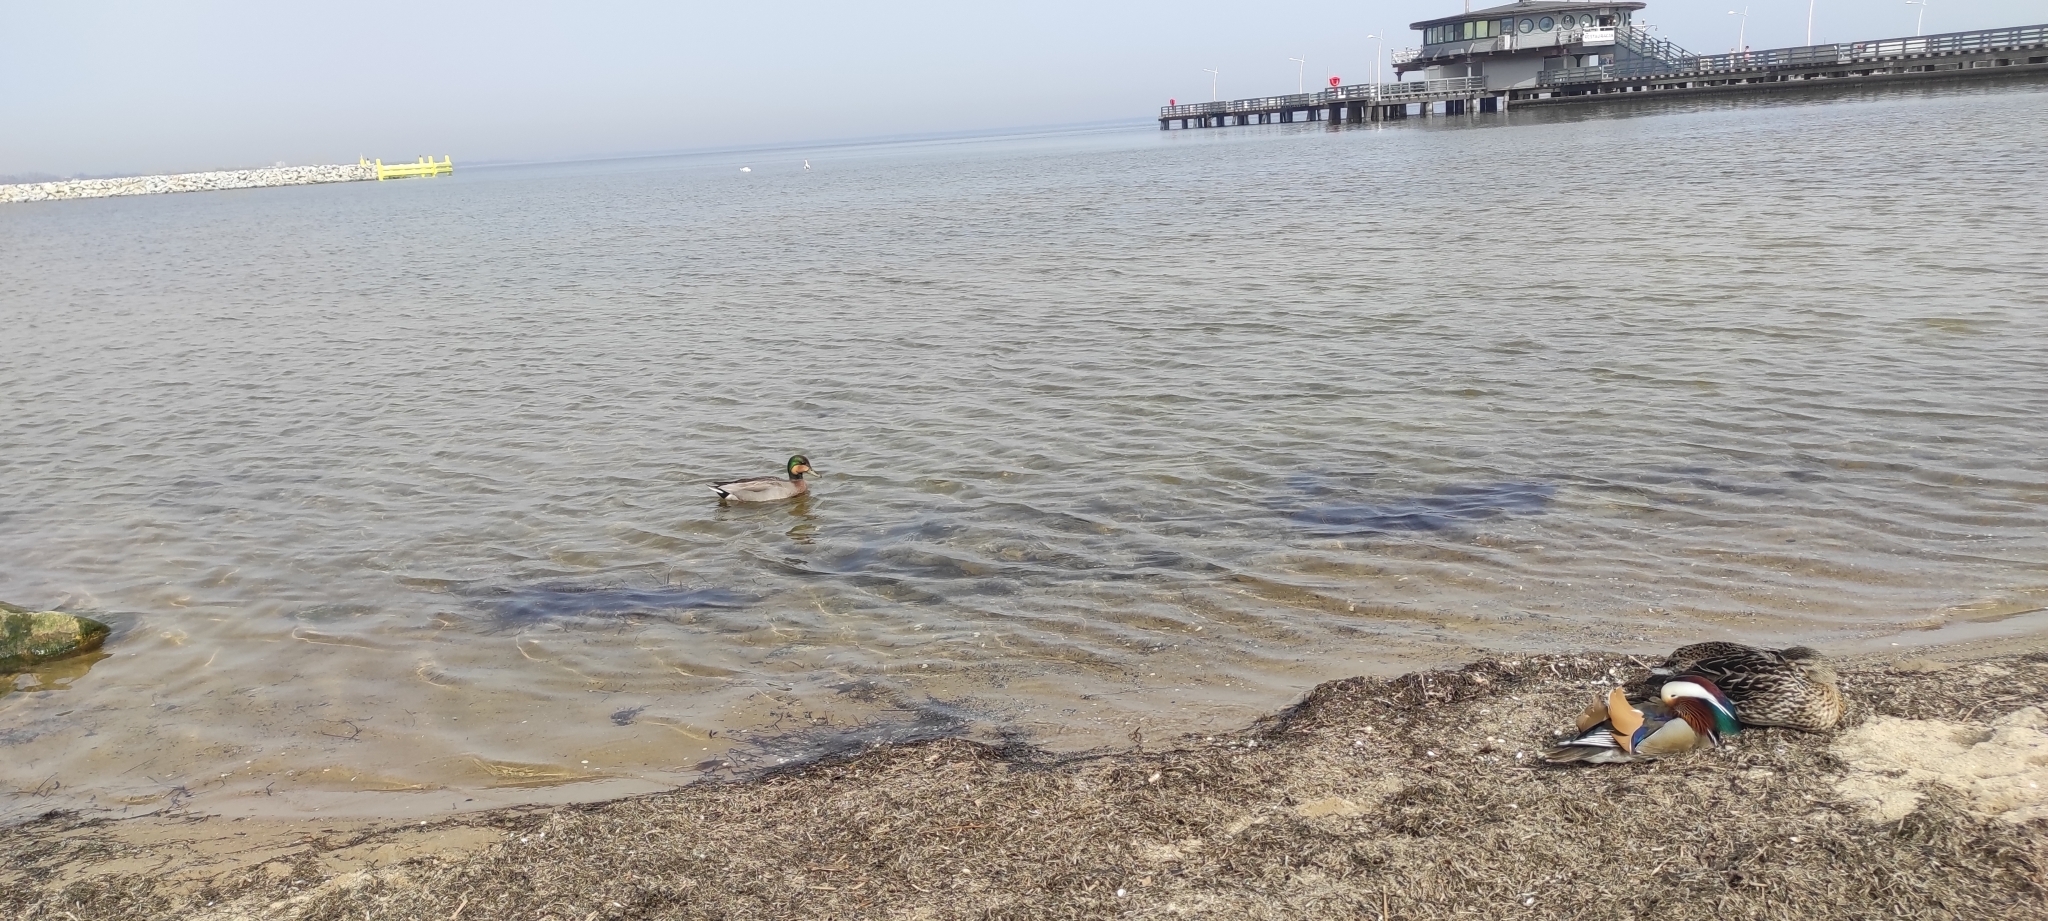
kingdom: Animalia
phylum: Chordata
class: Aves
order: Anseriformes
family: Anatidae
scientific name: Anatidae
